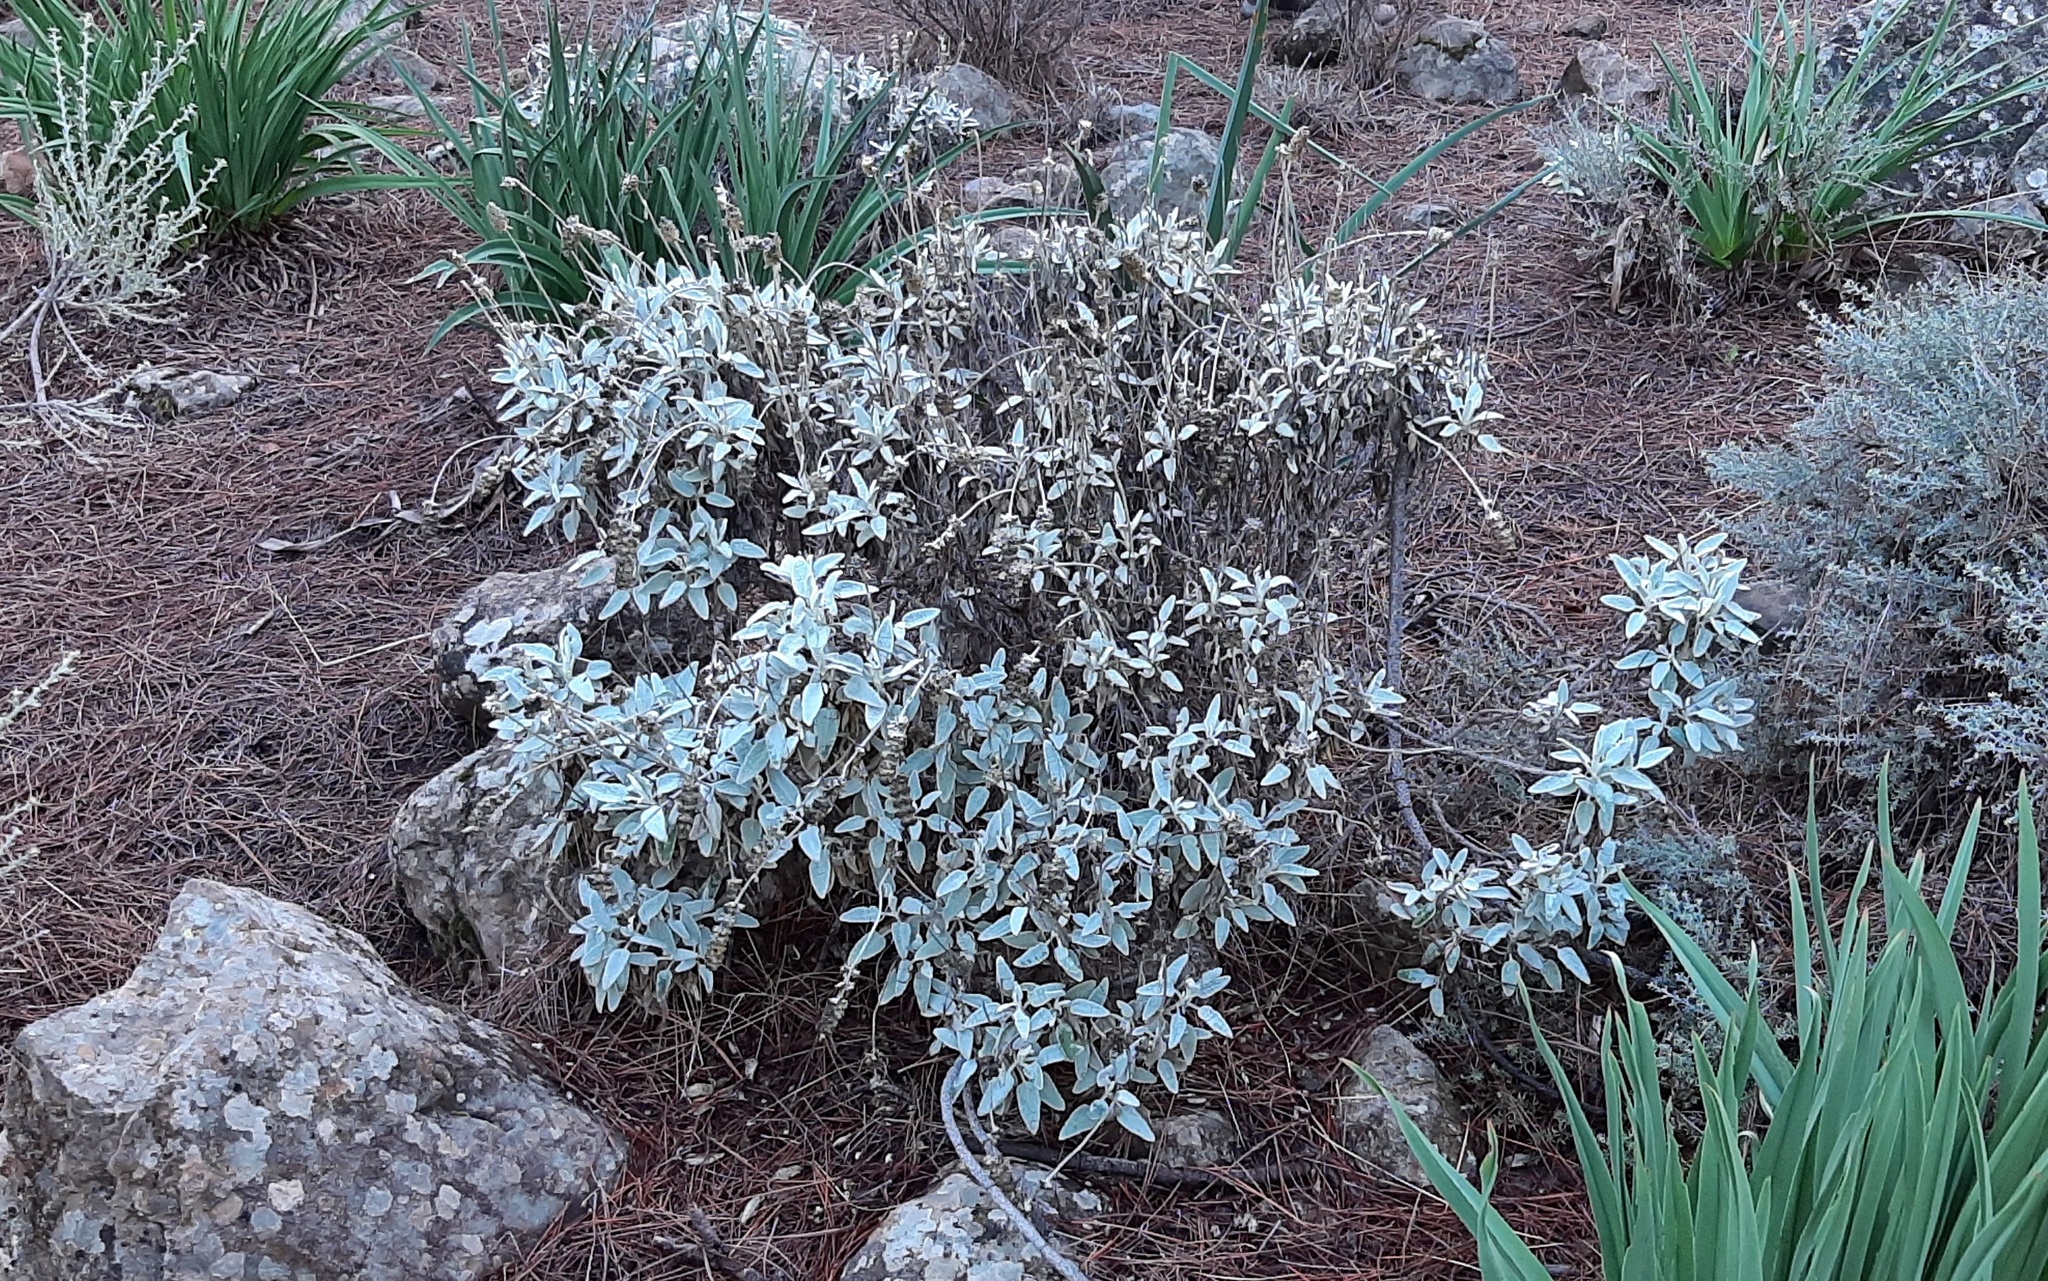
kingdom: Plantae
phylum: Tracheophyta
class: Magnoliopsida
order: Lamiales
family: Lamiaceae
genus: Sideritis
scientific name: Sideritis dasygnaphala
